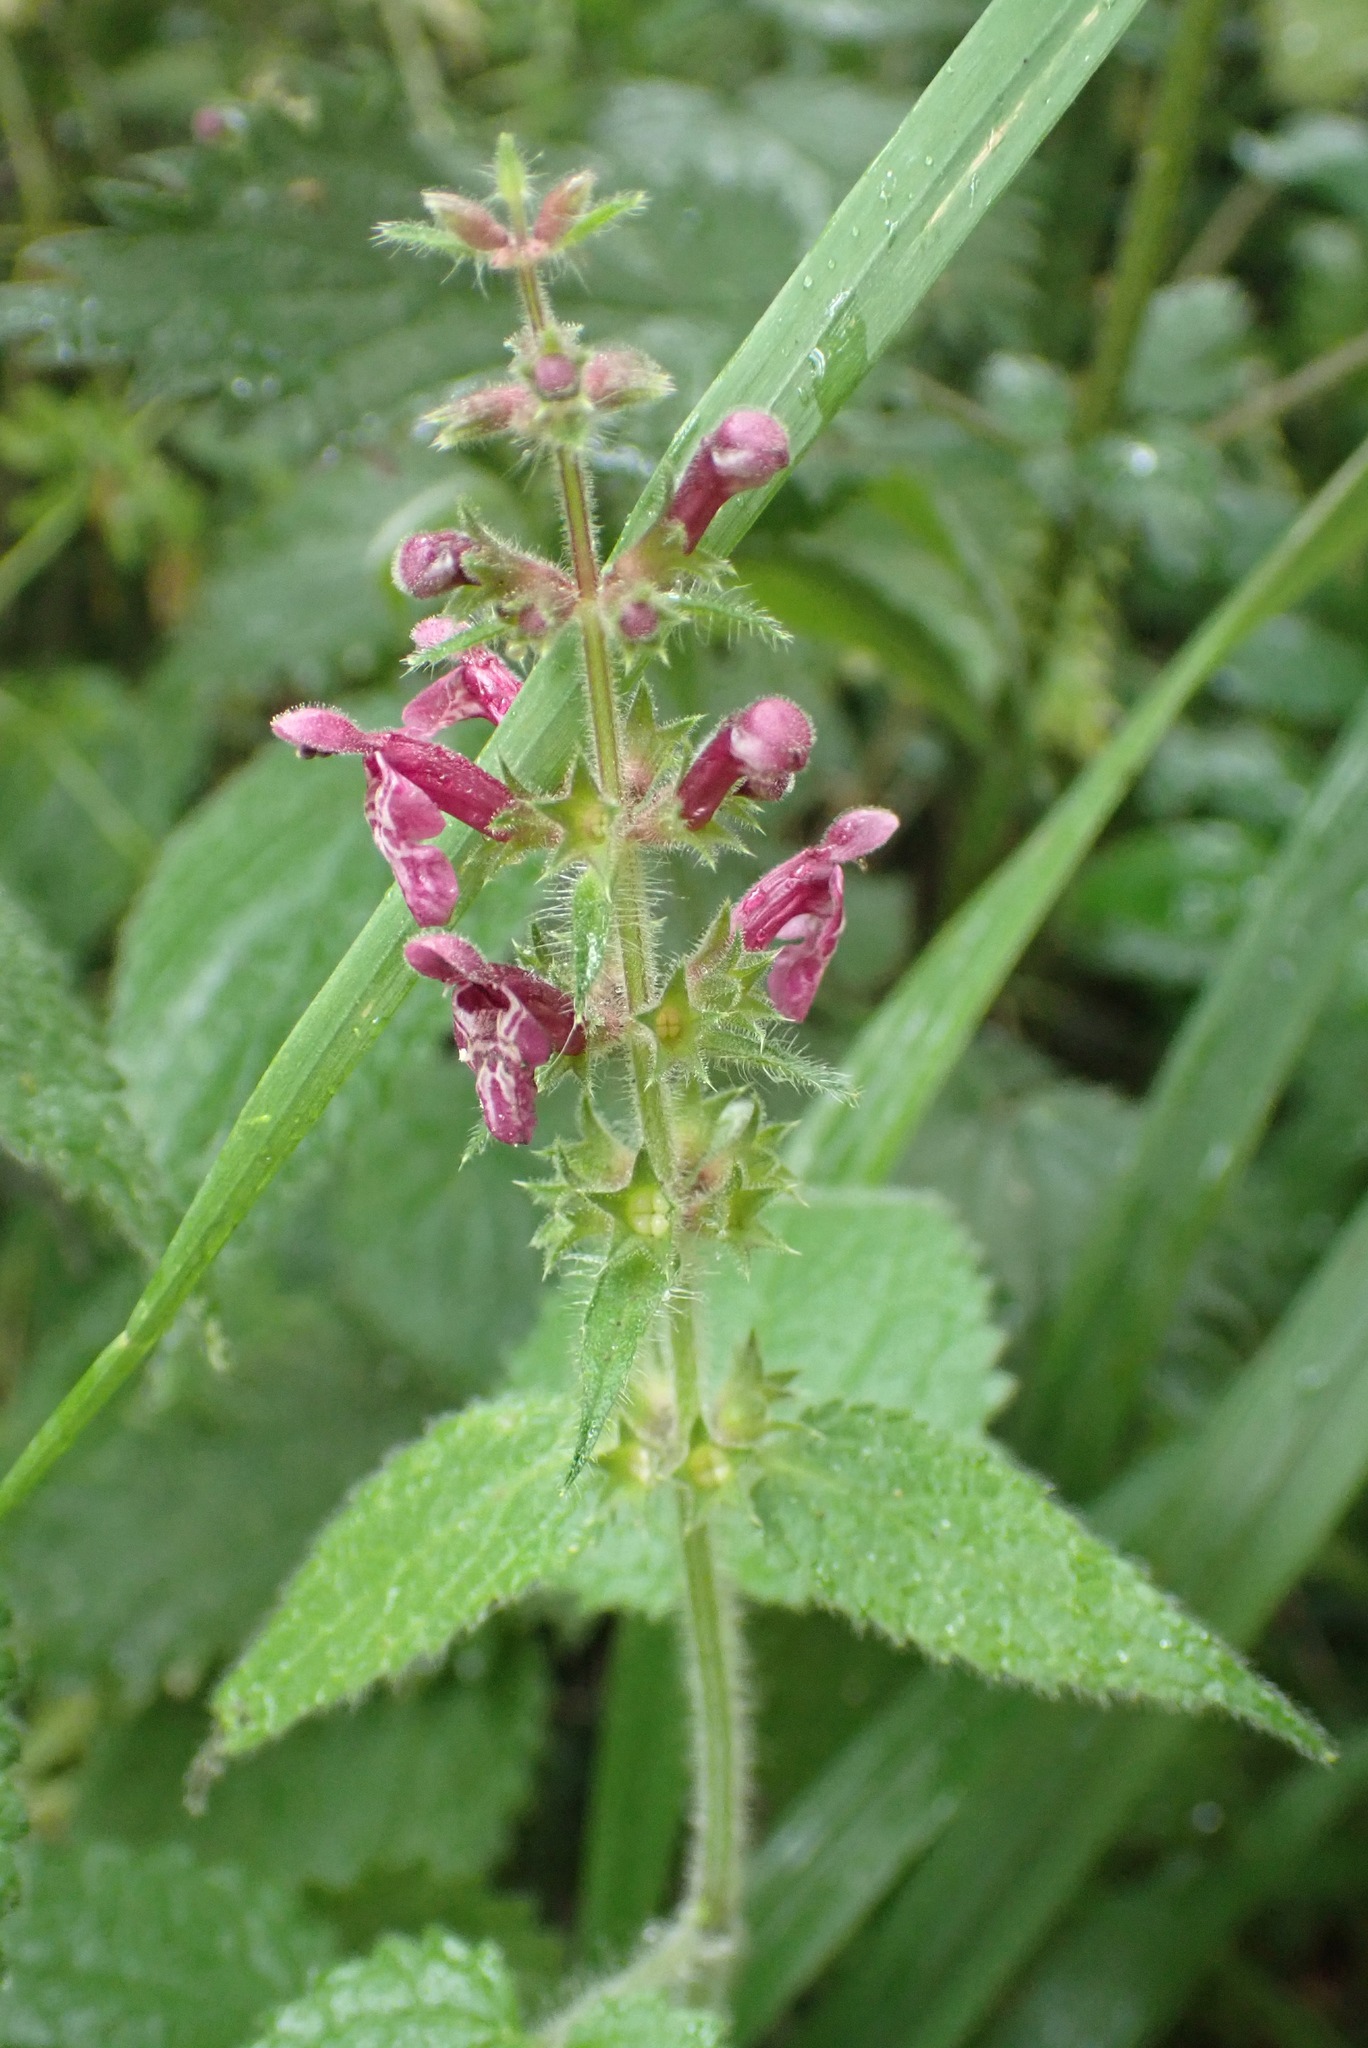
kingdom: Plantae
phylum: Tracheophyta
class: Magnoliopsida
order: Lamiales
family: Lamiaceae
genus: Stachys
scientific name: Stachys sylvatica
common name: Hedge woundwort
